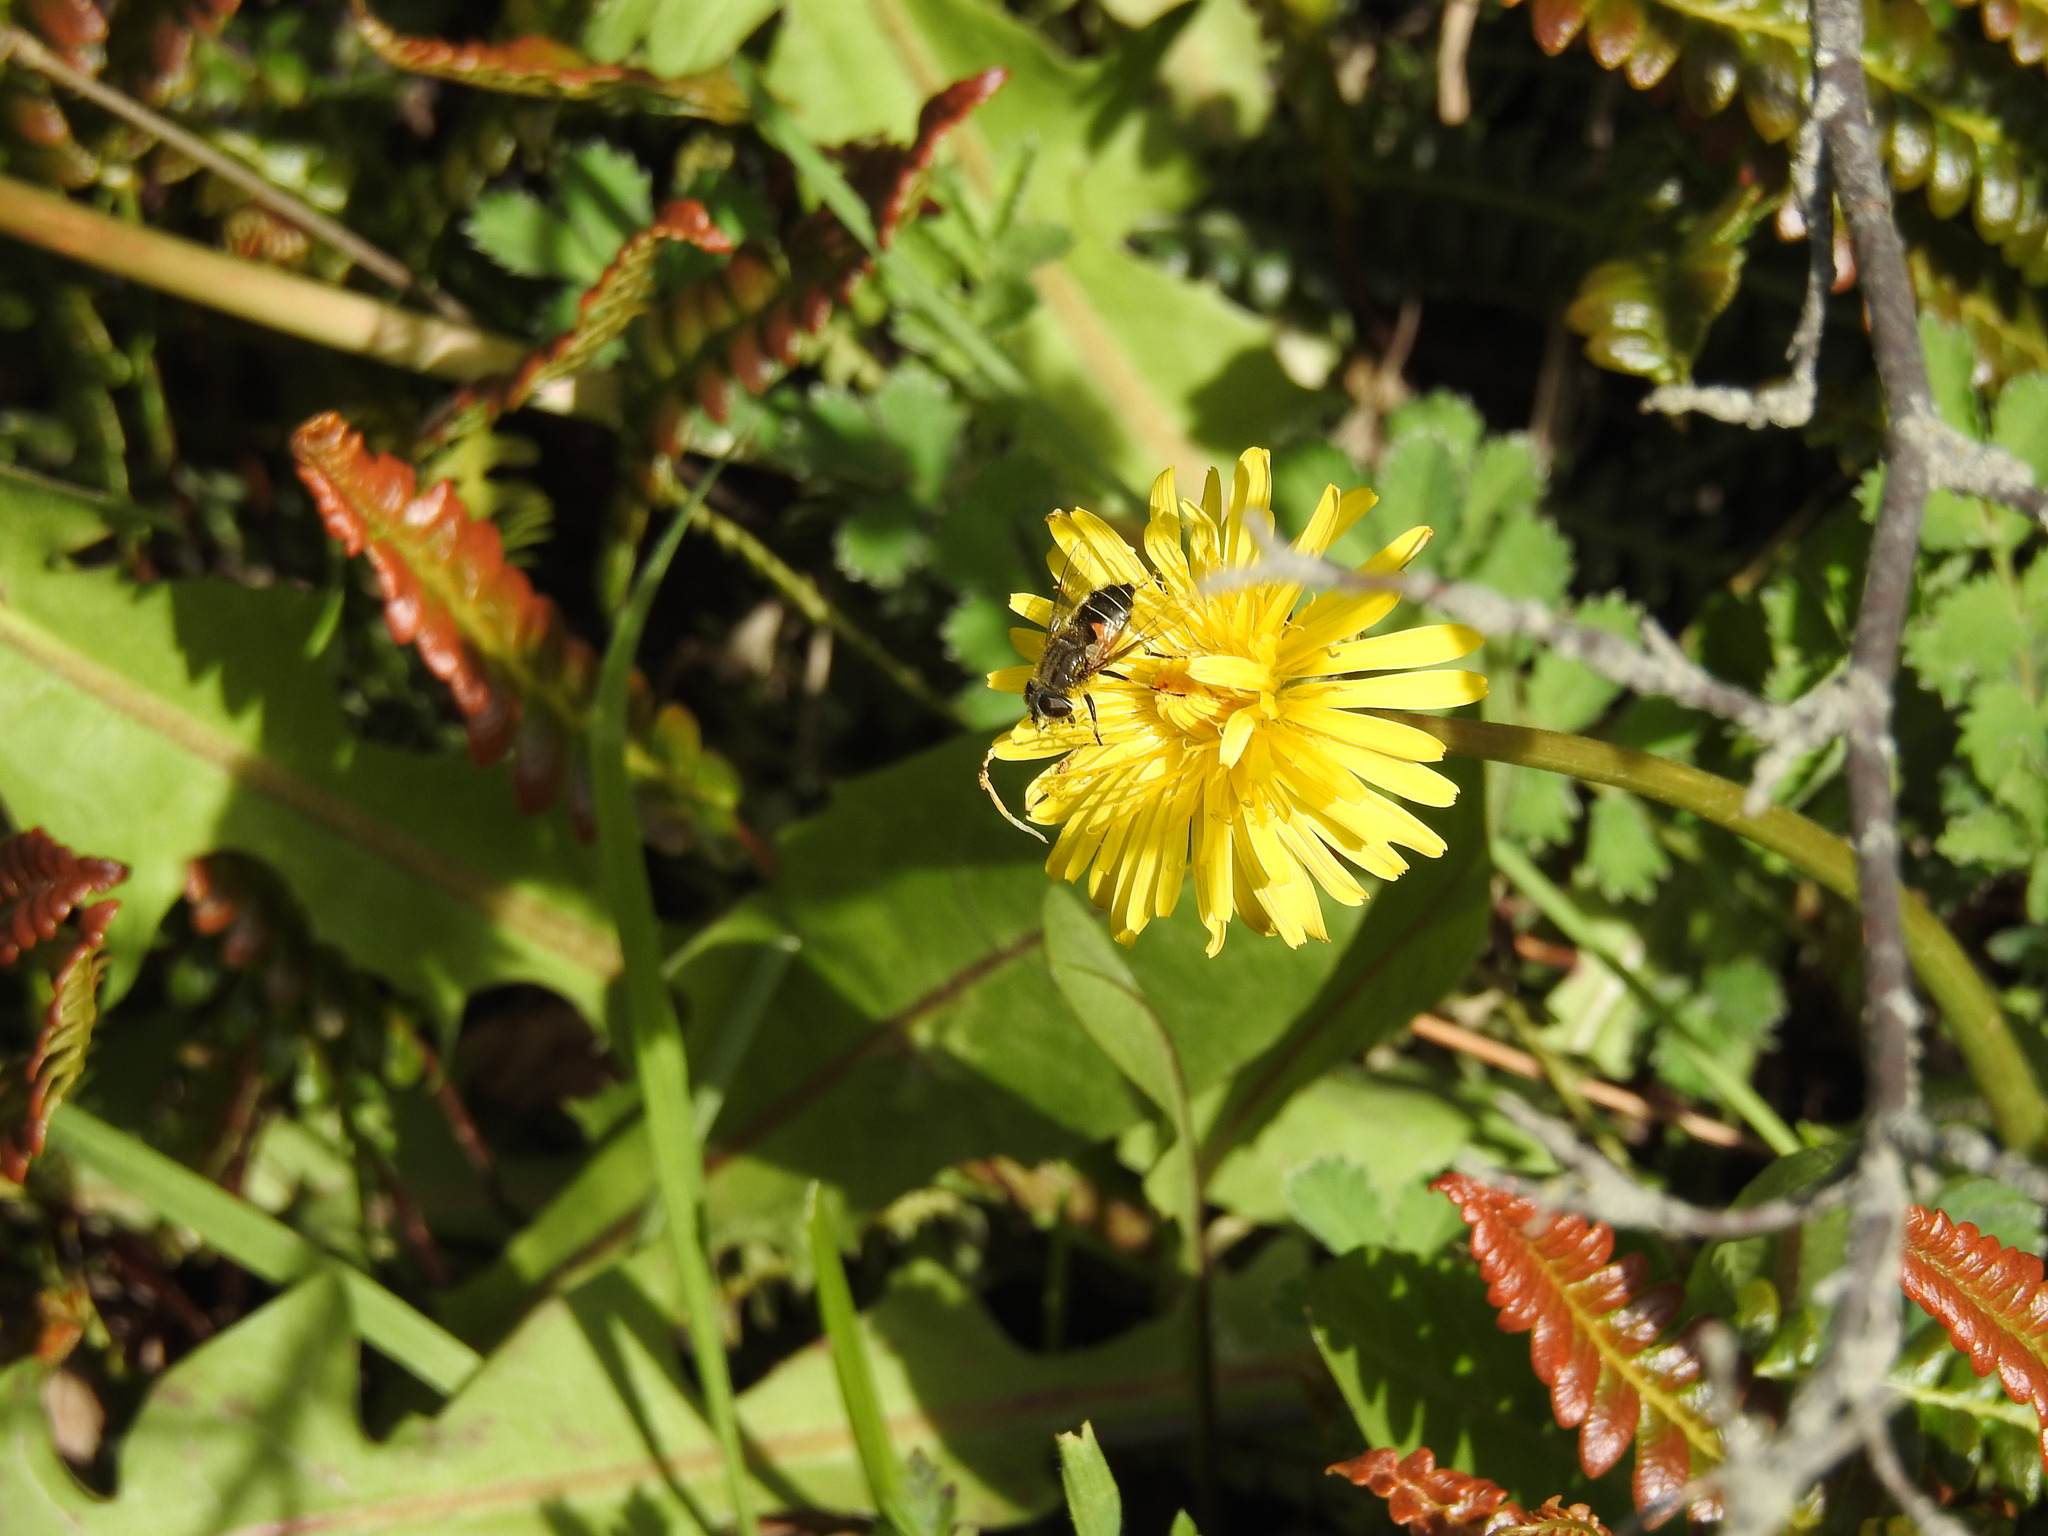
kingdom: Animalia
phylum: Arthropoda
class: Insecta
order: Diptera
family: Syrphidae
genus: Eristalis
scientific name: Eristalis croceimaculata
